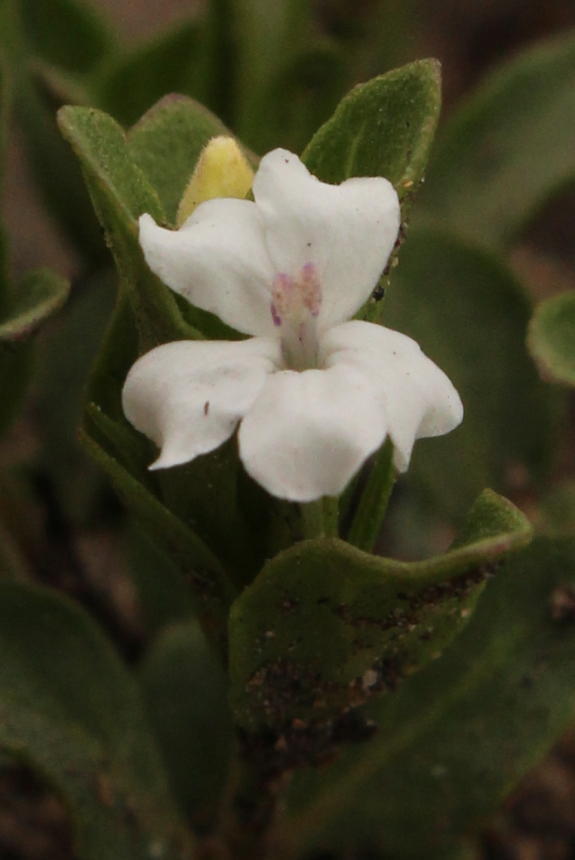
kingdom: Plantae
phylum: Tracheophyta
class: Magnoliopsida
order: Lamiales
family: Acanthaceae
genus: Dyschoriste
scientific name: Dyschoriste setigera
